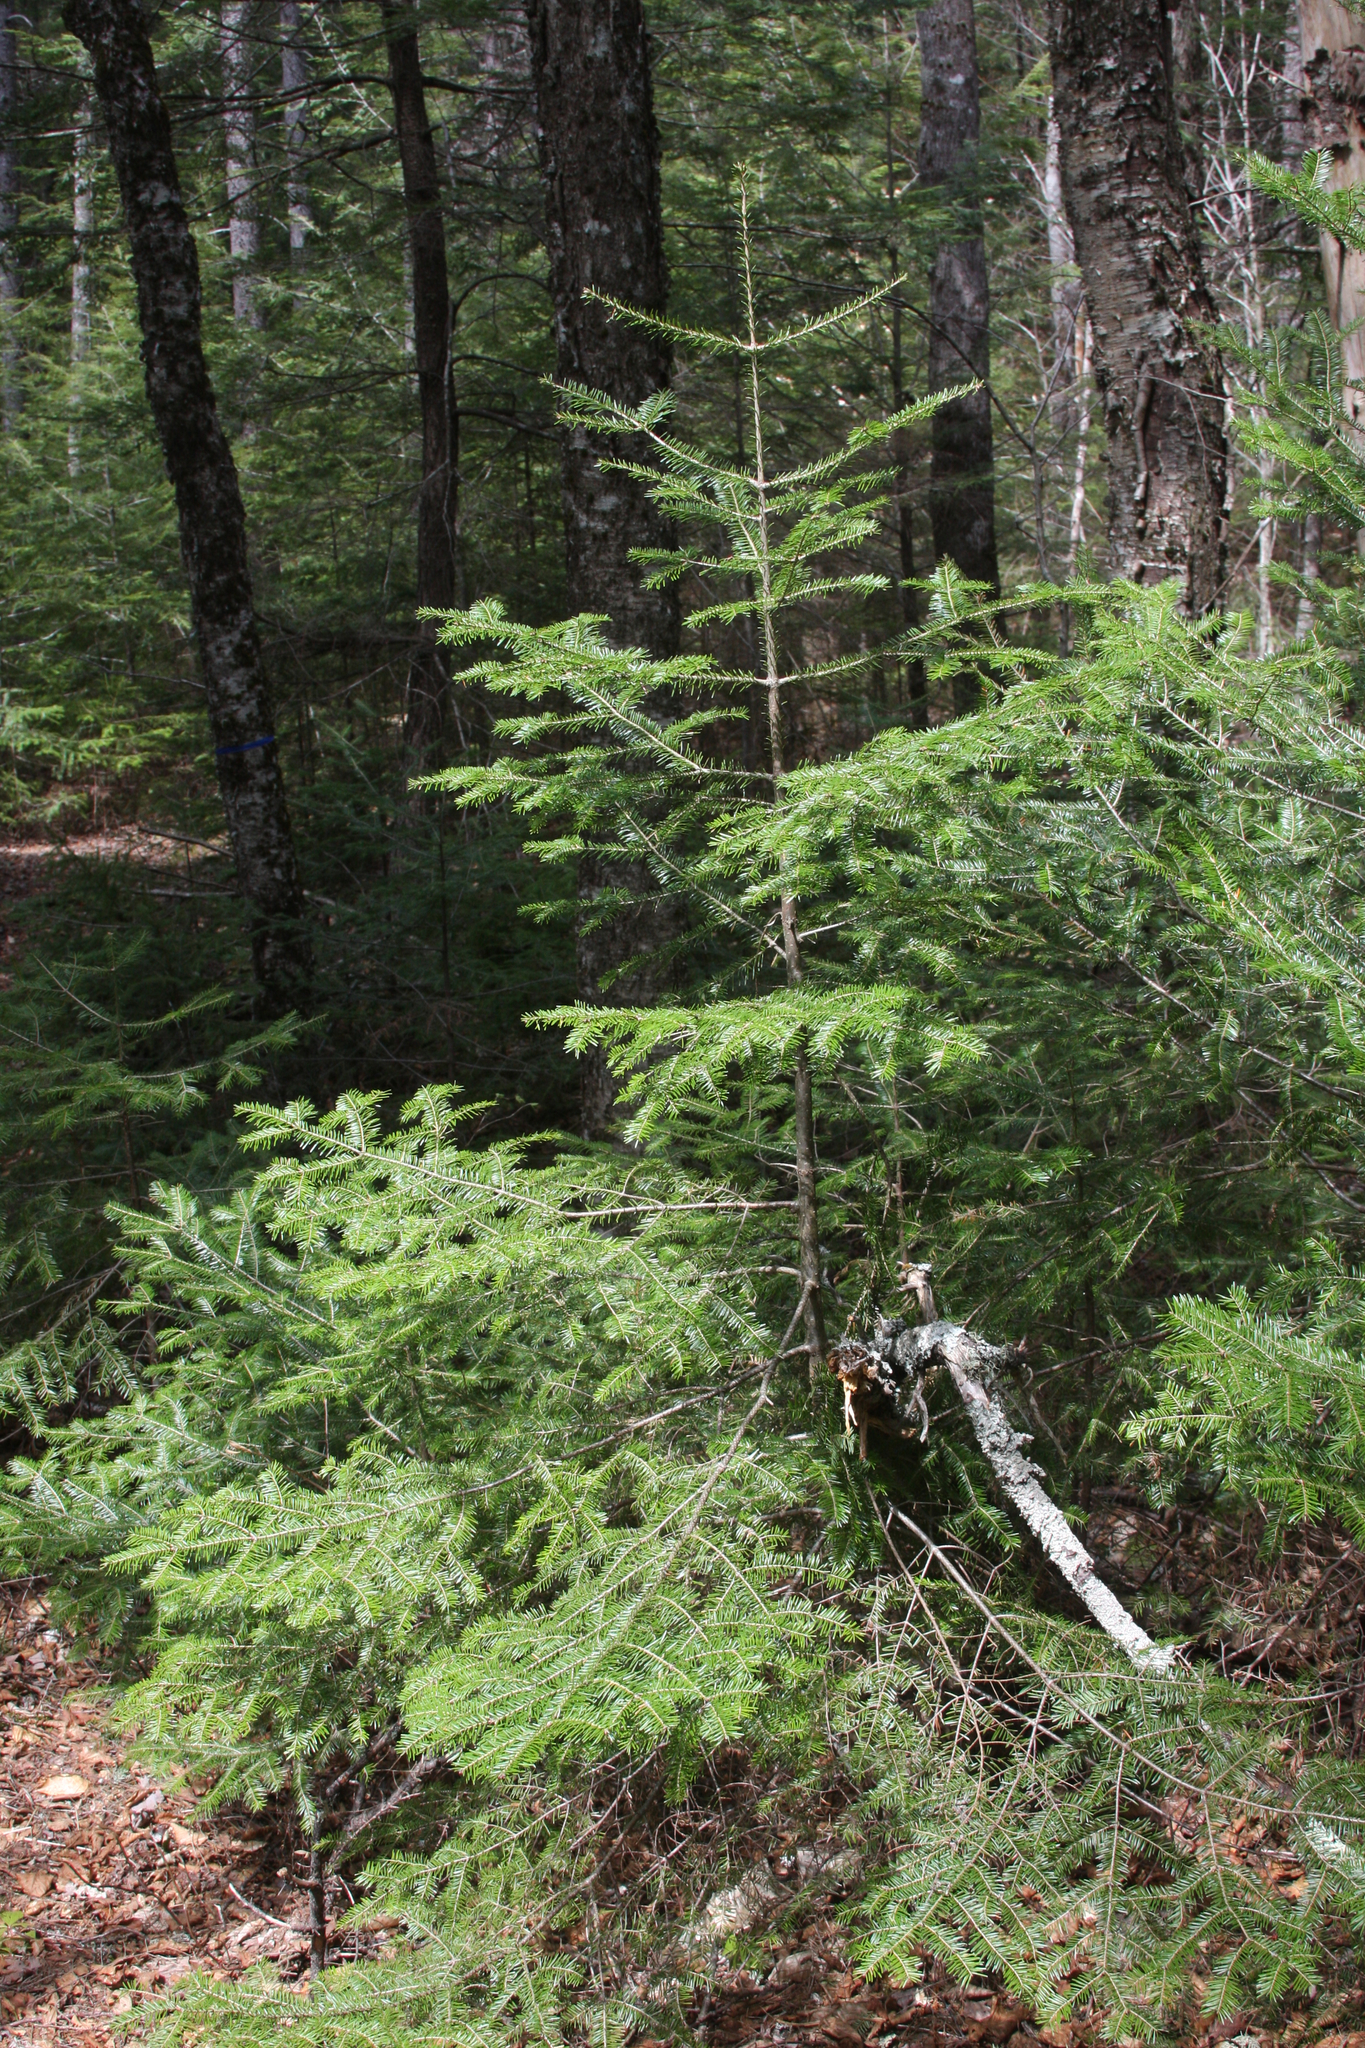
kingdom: Plantae
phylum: Tracheophyta
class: Pinopsida
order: Pinales
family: Pinaceae
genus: Abies
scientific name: Abies balsamea
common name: Balsam fir
